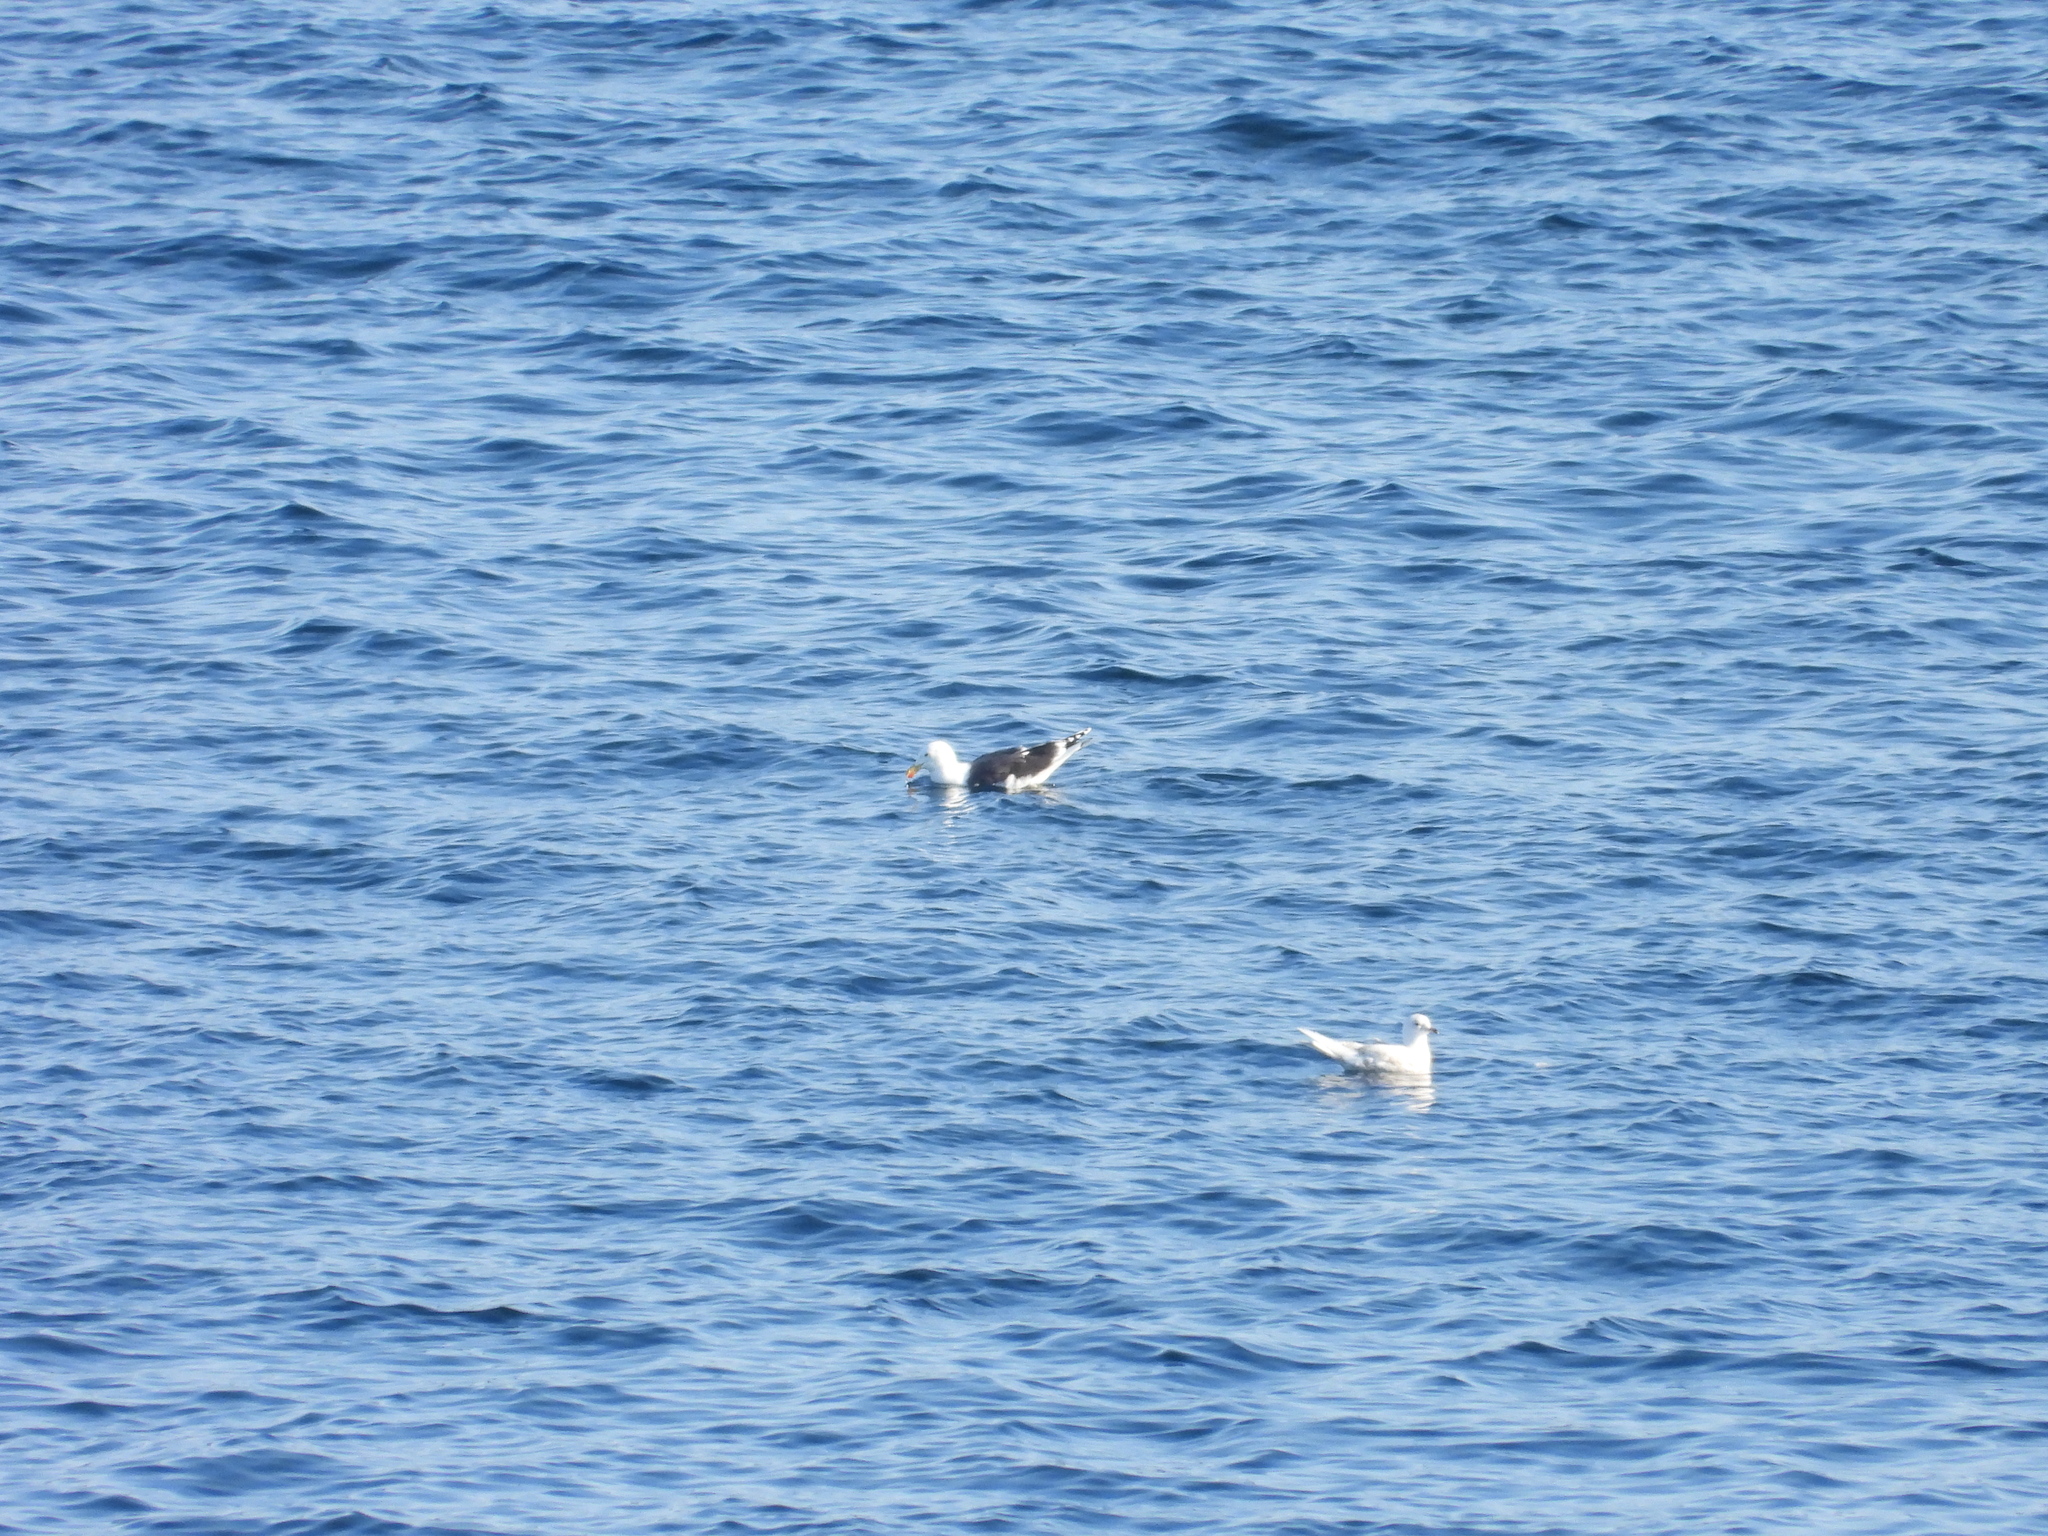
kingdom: Animalia
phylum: Chordata
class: Aves
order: Charadriiformes
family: Laridae
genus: Larus
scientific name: Larus marinus
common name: Great black-backed gull
